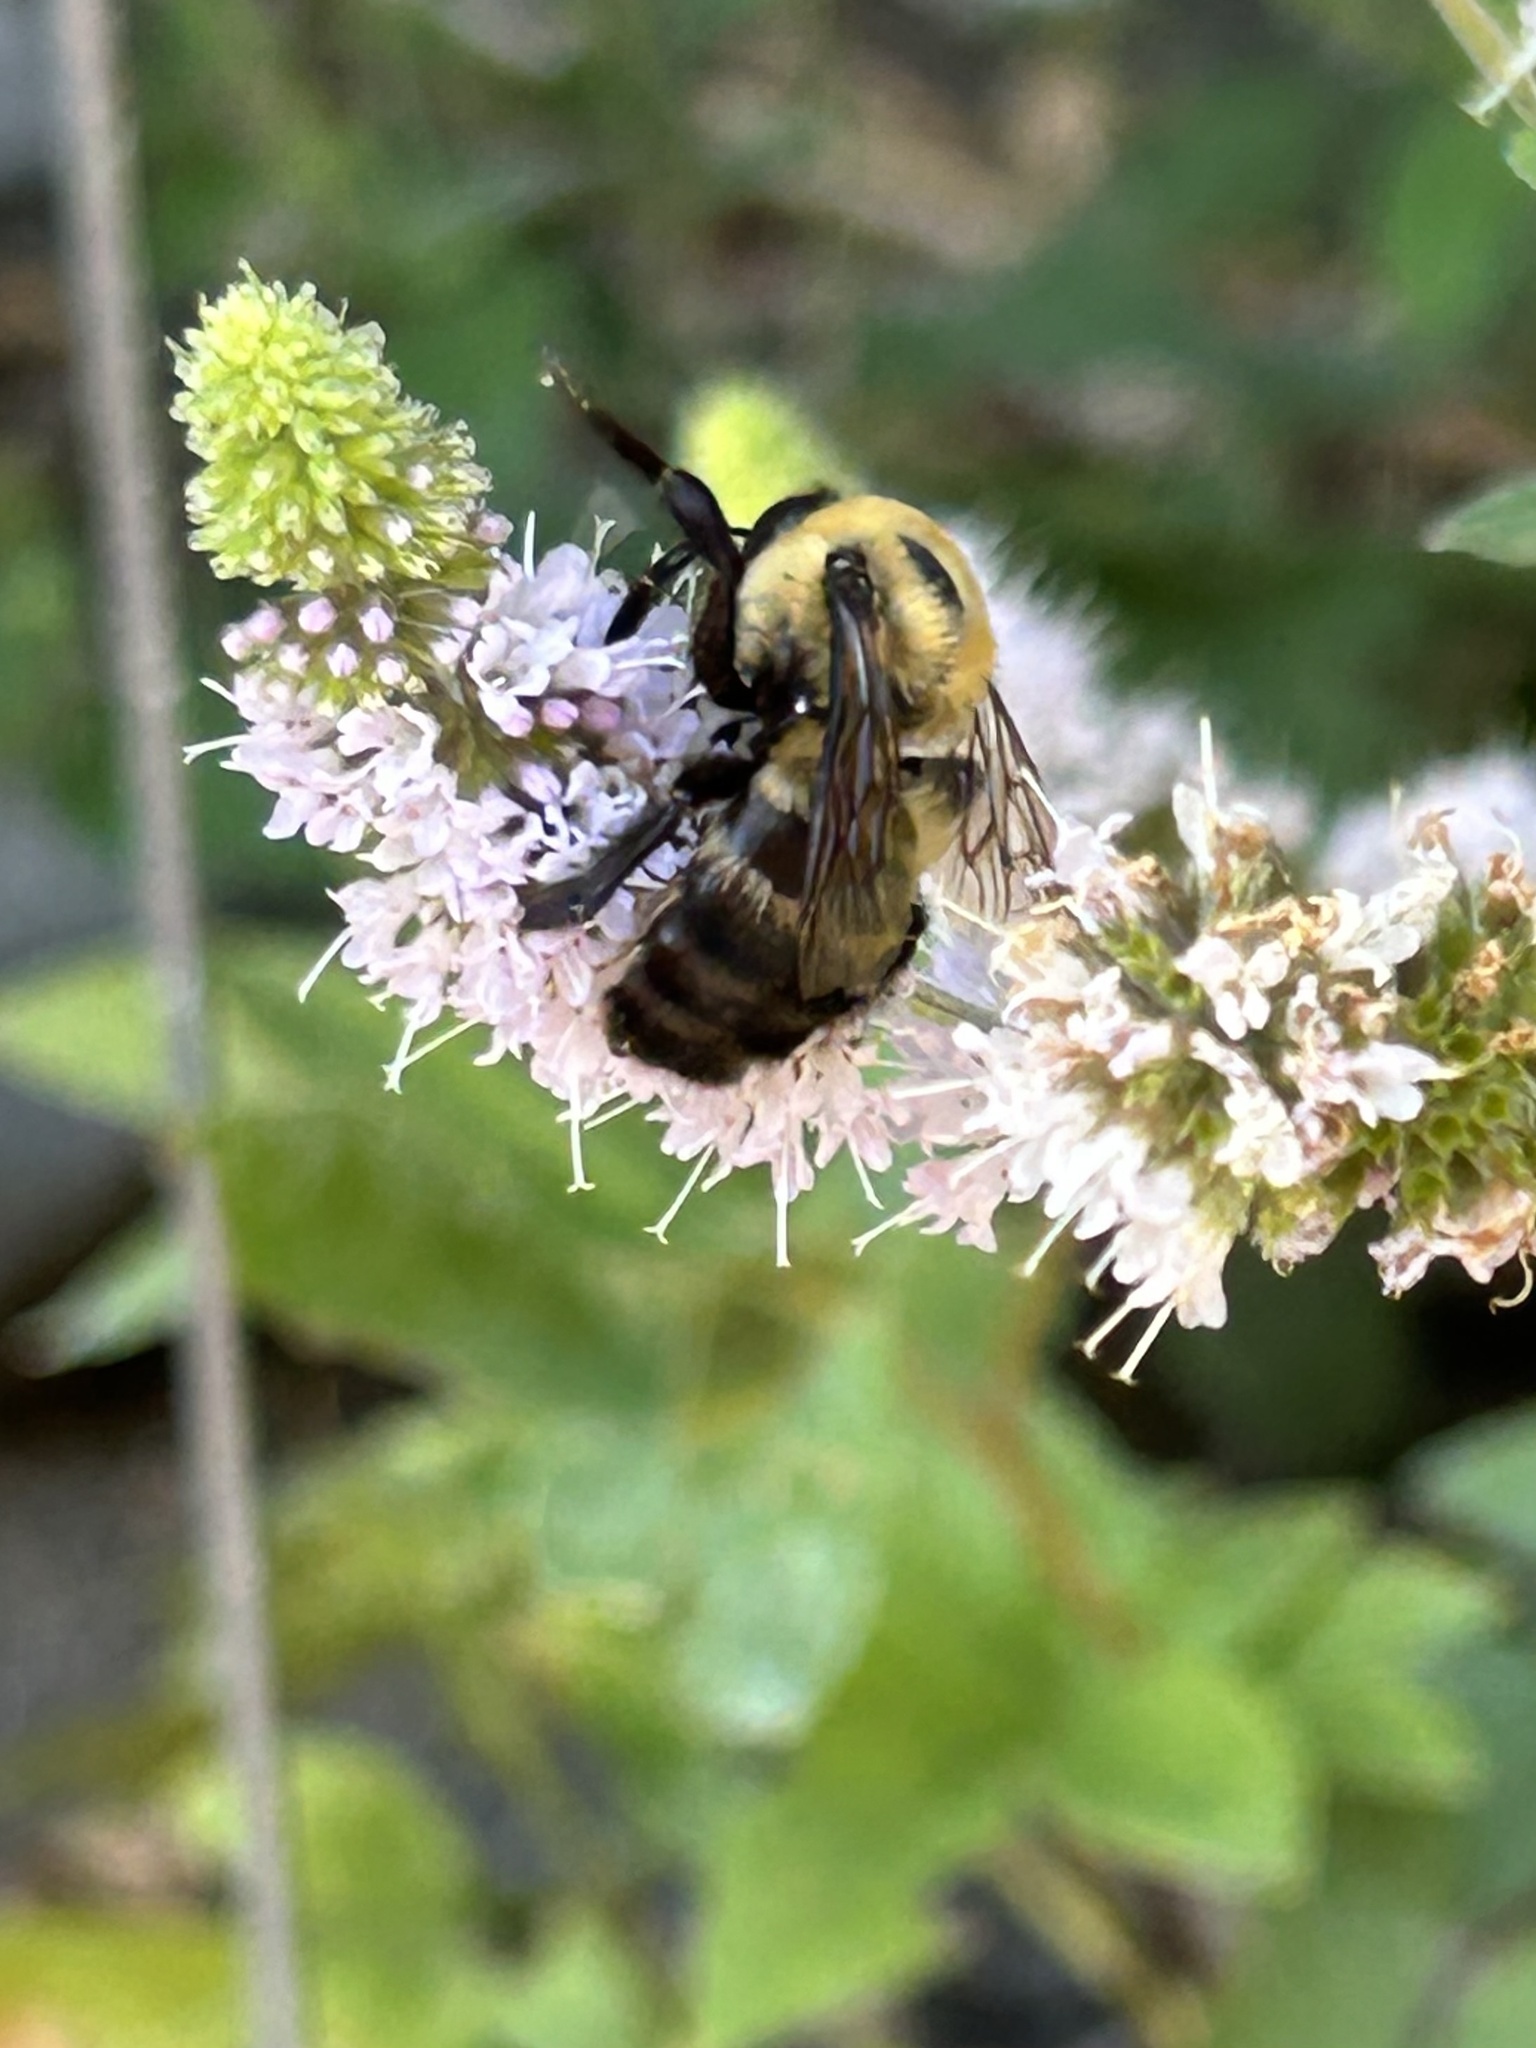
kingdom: Animalia
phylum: Arthropoda
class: Insecta
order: Hymenoptera
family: Apidae
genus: Bombus
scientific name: Bombus griseocollis
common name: Brown-belted bumble bee
